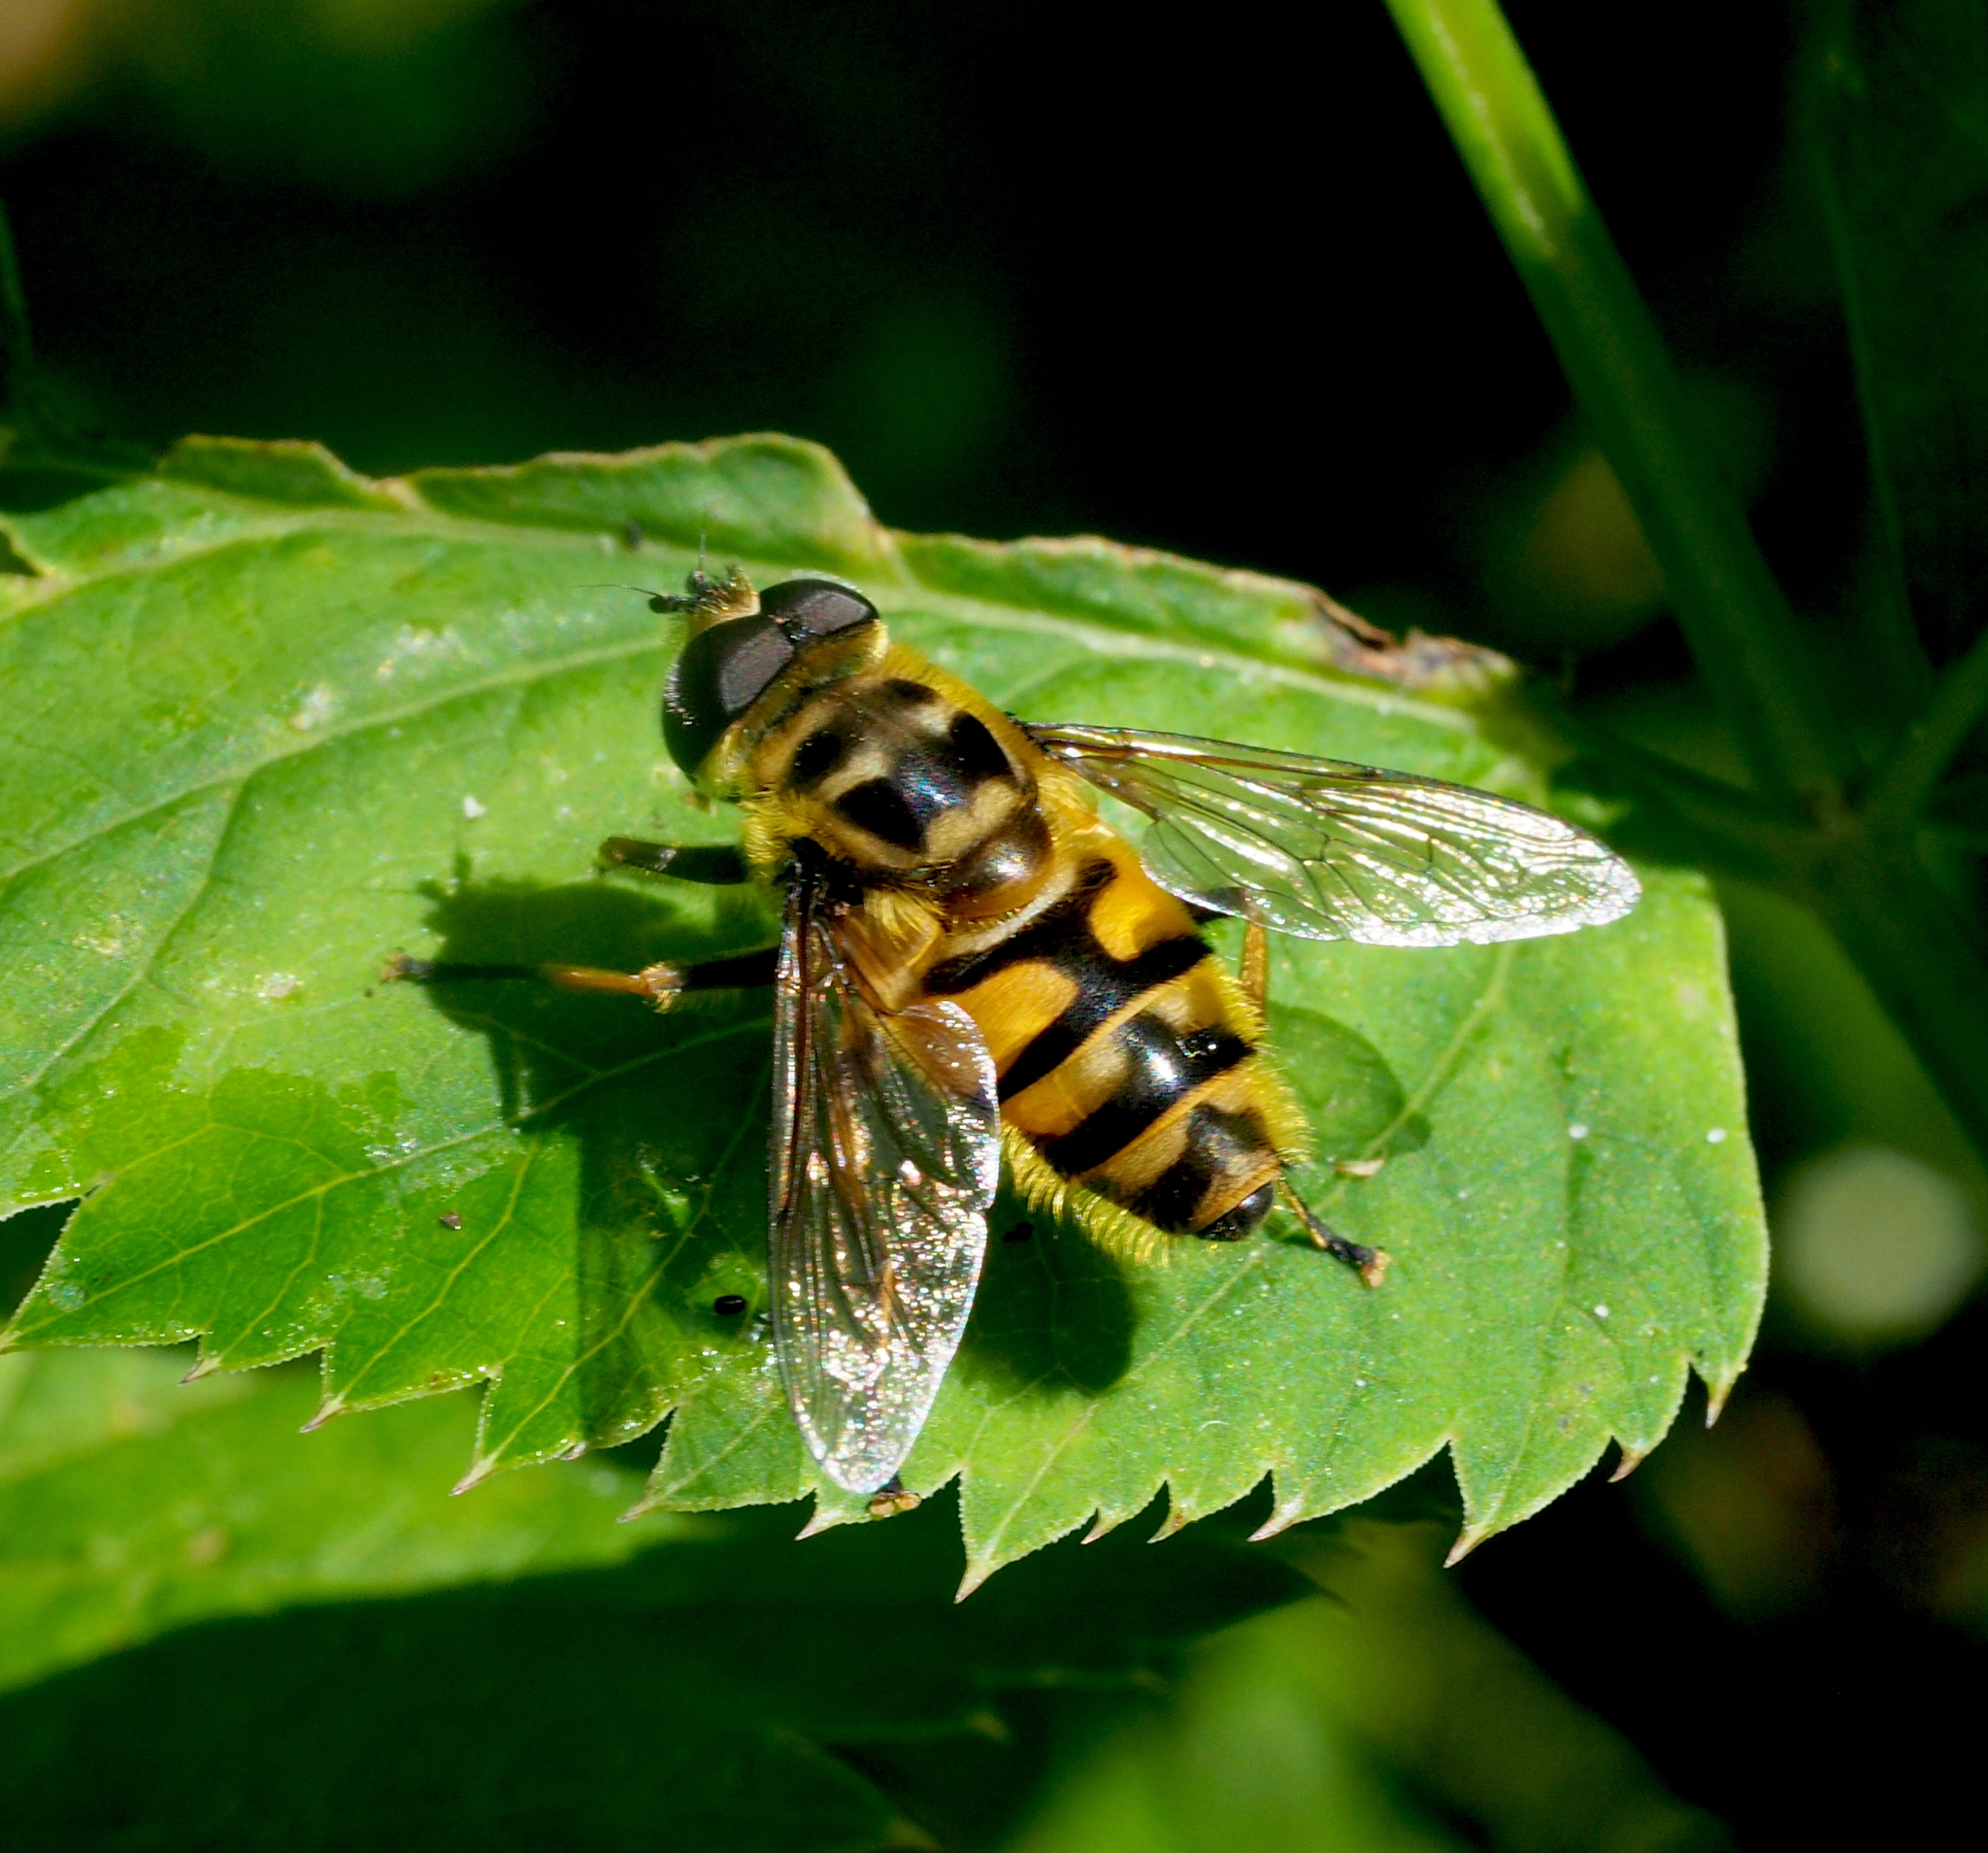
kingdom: Animalia
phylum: Arthropoda
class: Insecta
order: Diptera
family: Syrphidae
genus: Myathropa
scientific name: Myathropa florea
